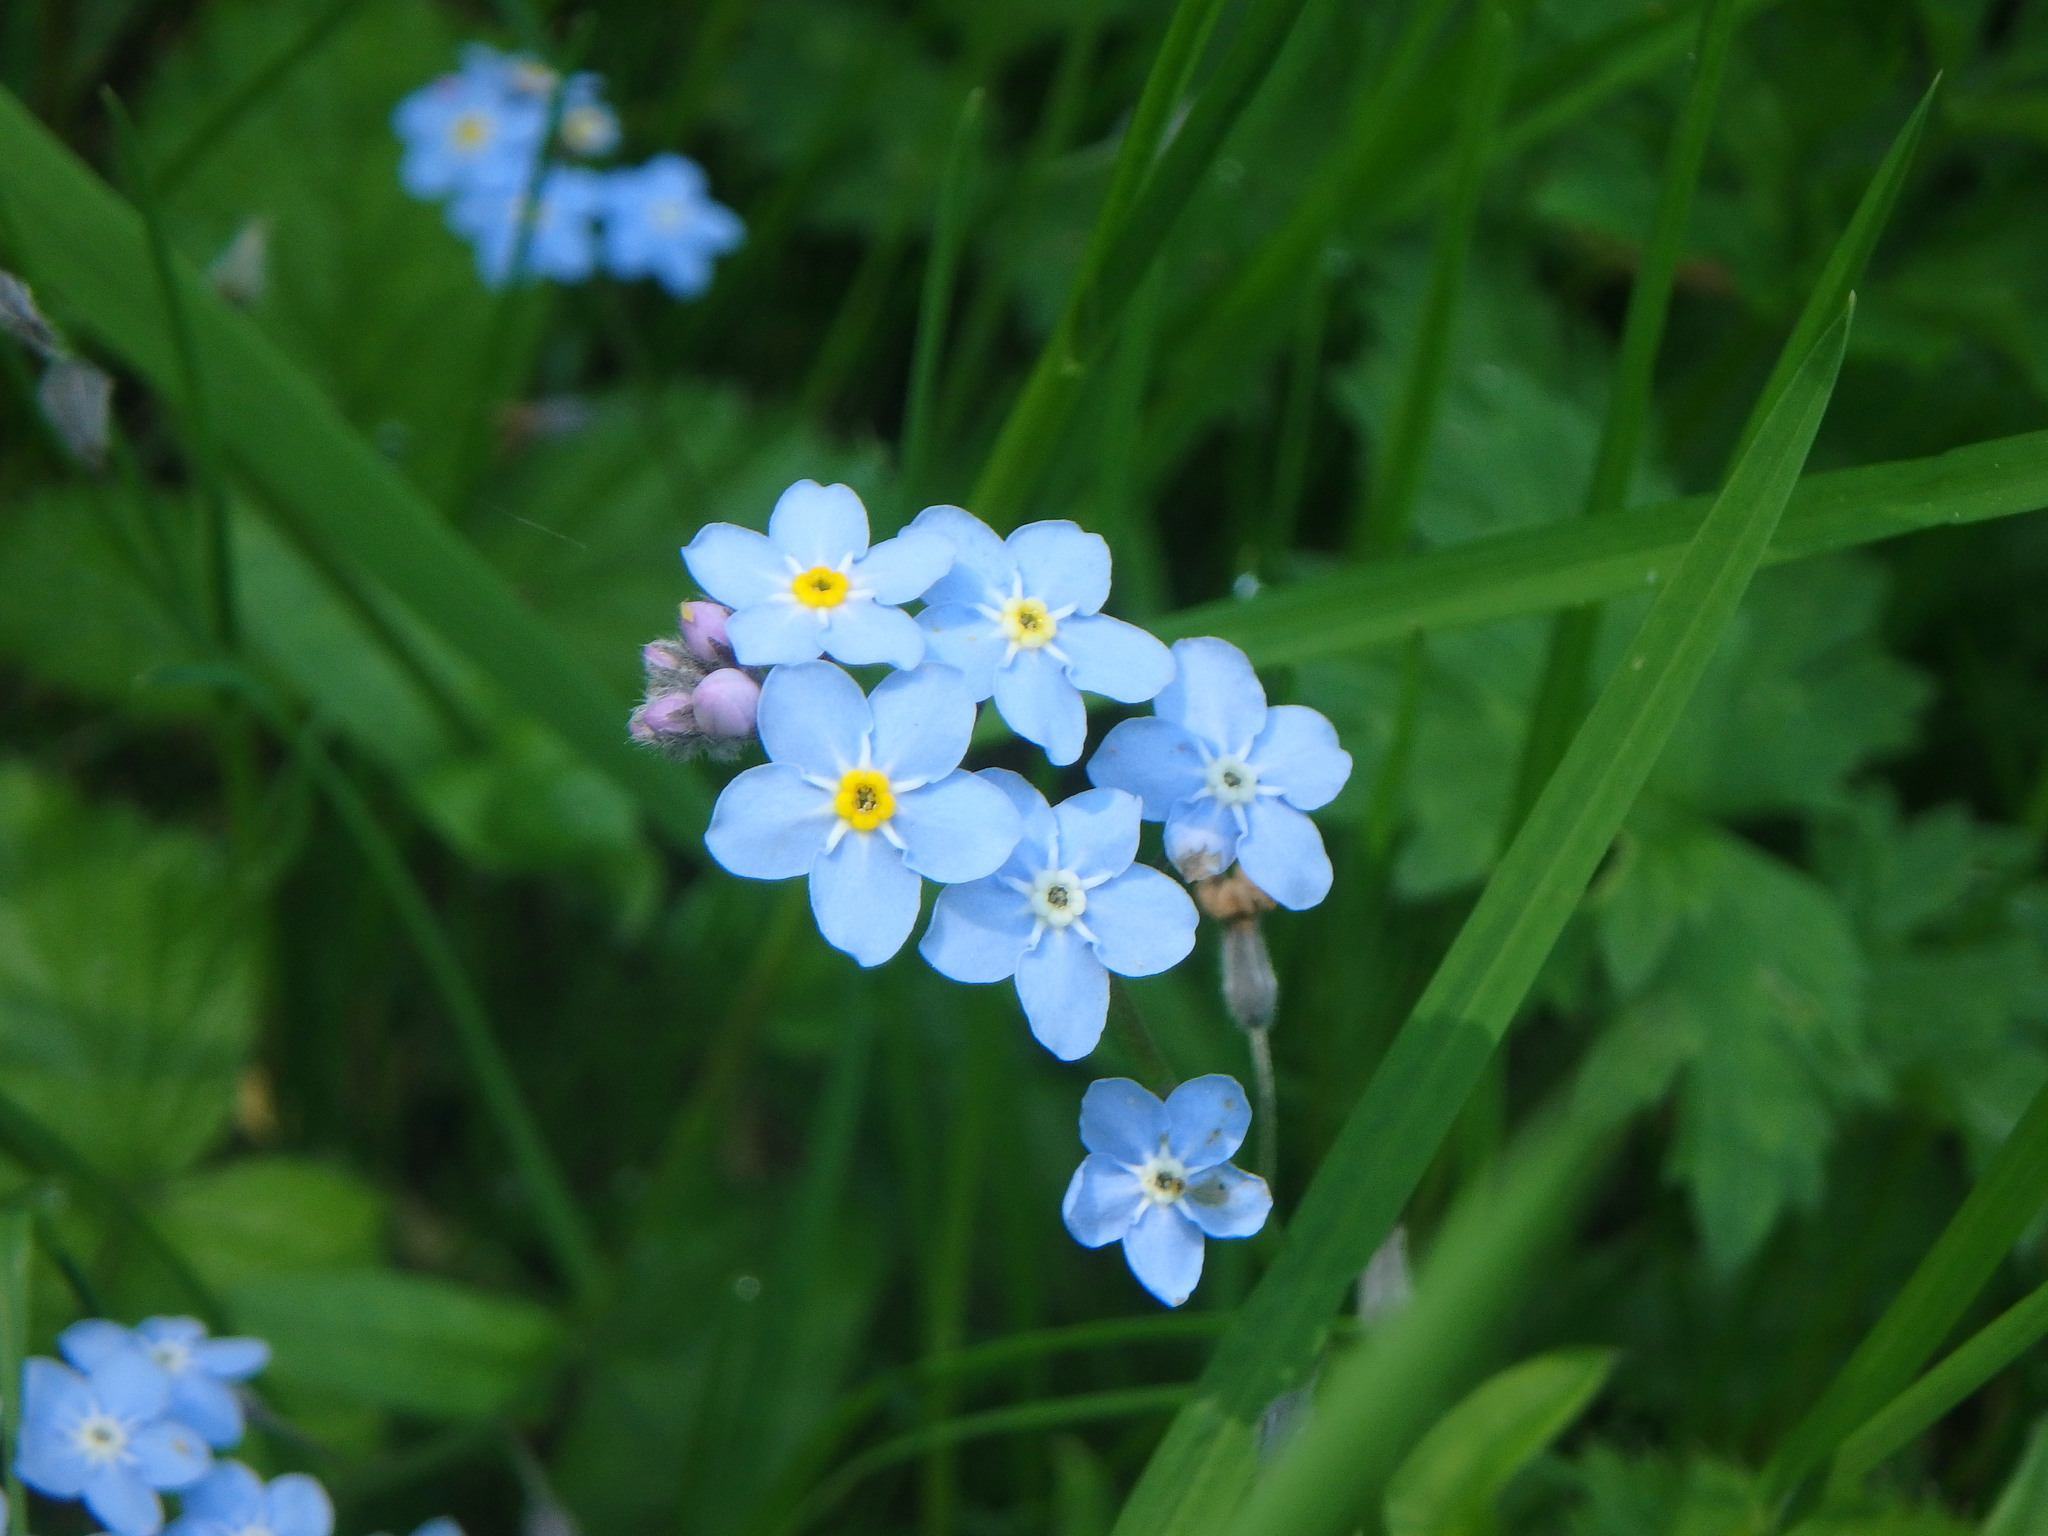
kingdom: Plantae
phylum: Tracheophyta
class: Magnoliopsida
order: Boraginales
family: Boraginaceae
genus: Myosotis
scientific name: Myosotis sylvatica
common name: Wood forget-me-not
